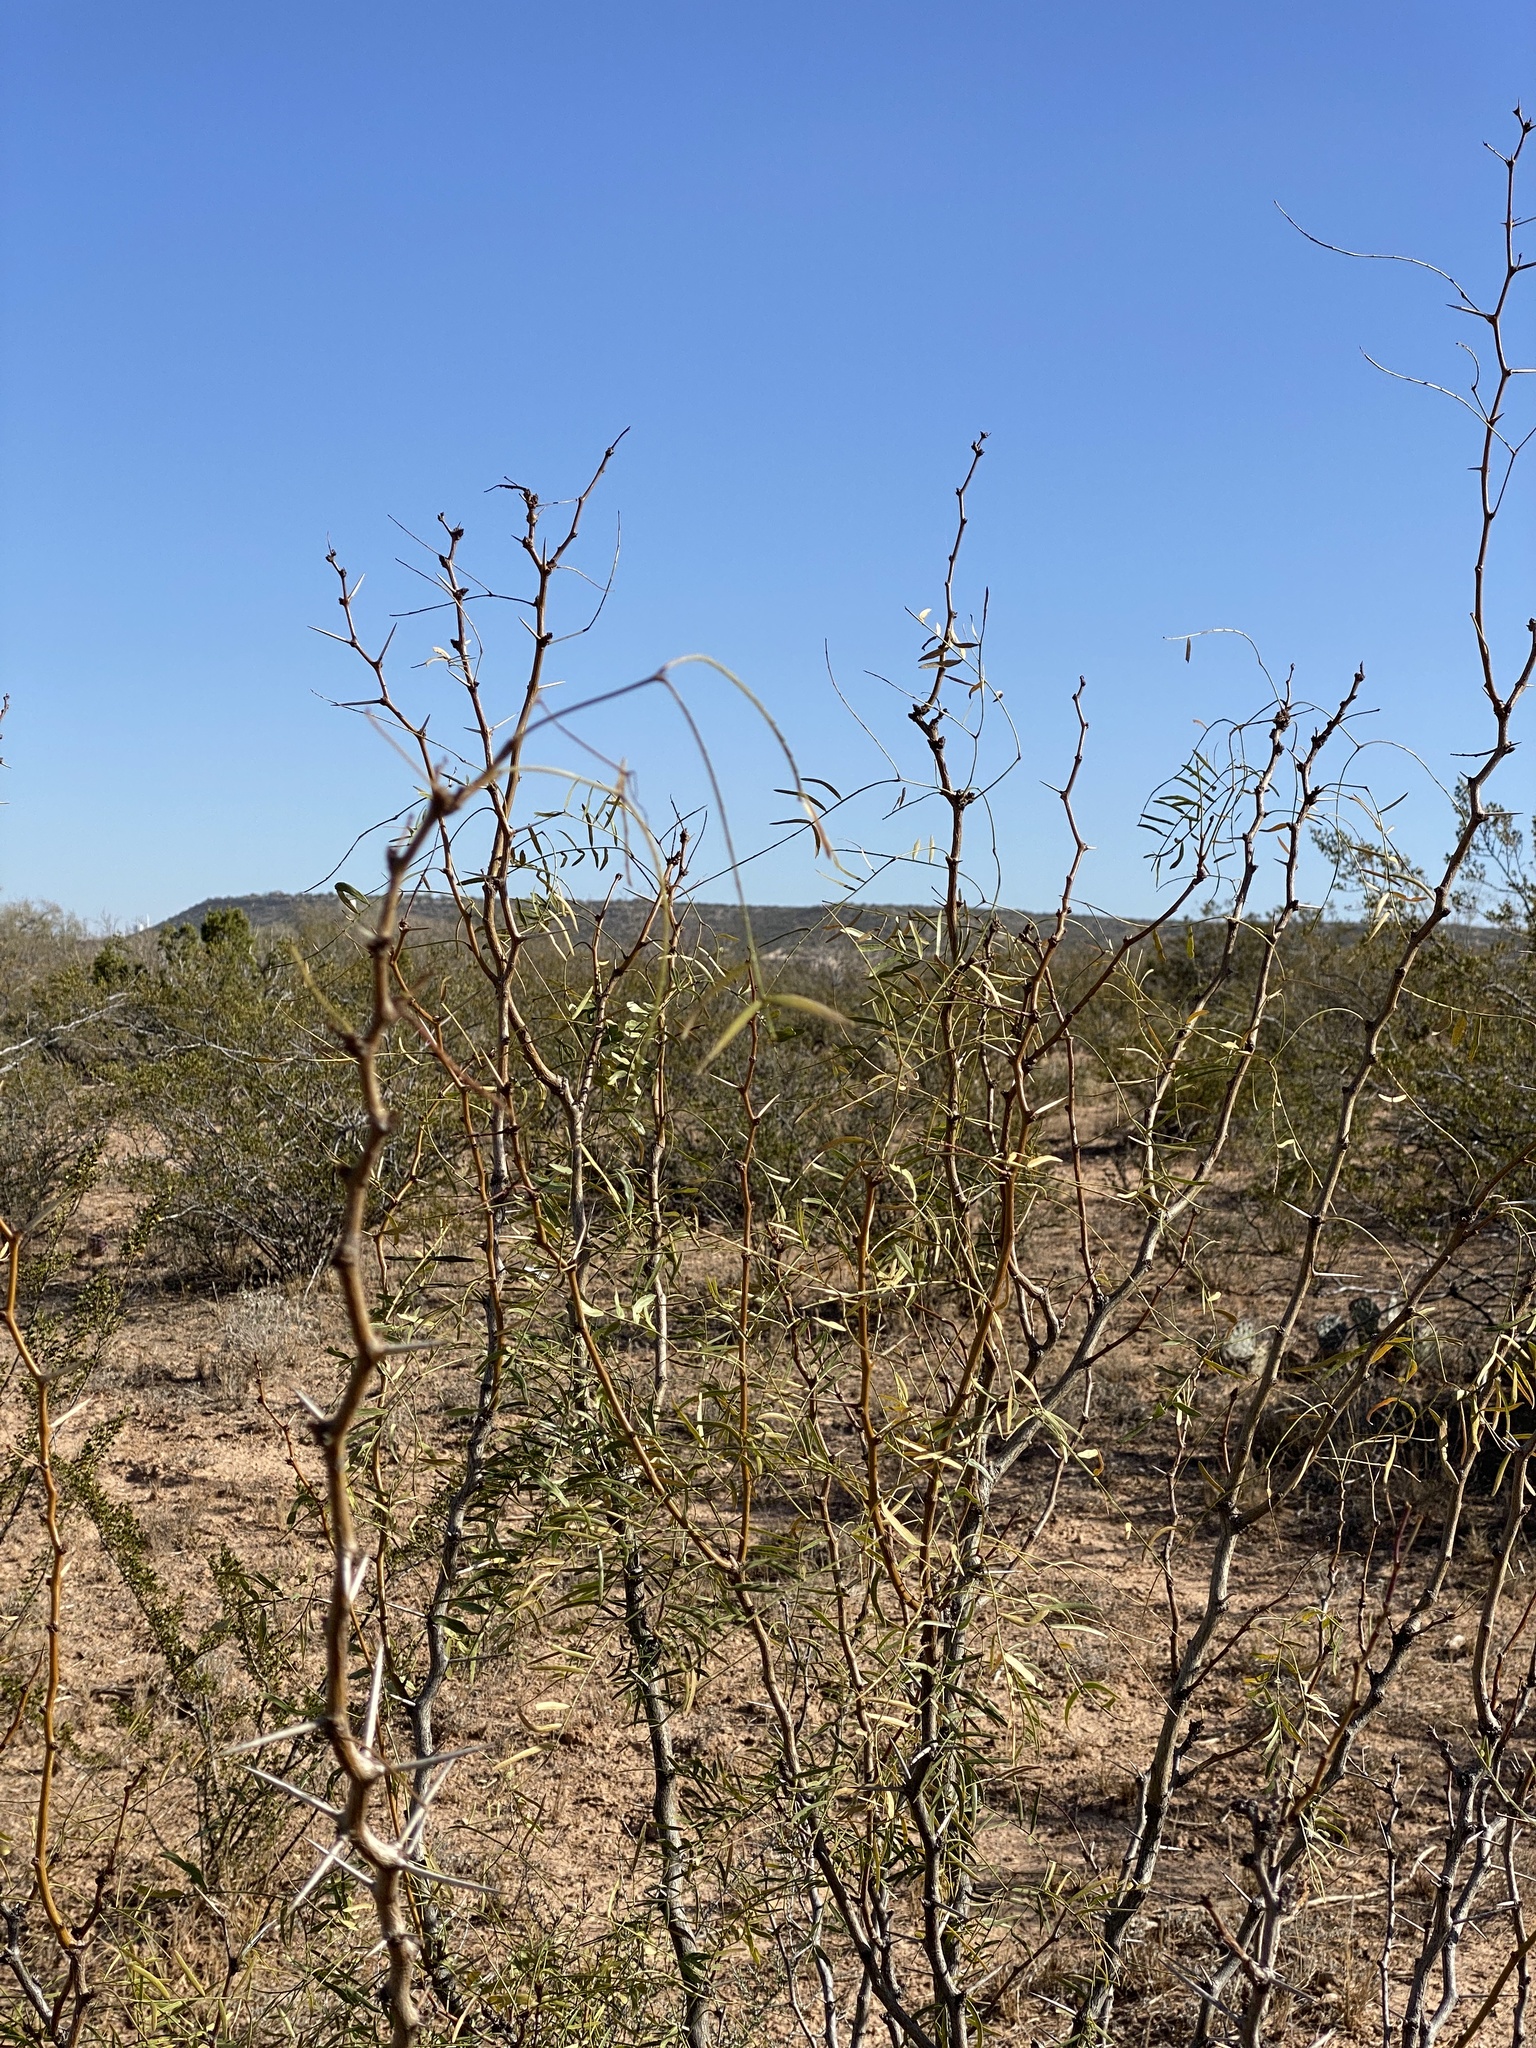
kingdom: Plantae
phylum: Tracheophyta
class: Magnoliopsida
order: Fabales
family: Fabaceae
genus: Prosopis
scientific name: Prosopis glandulosa
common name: Honey mesquite
